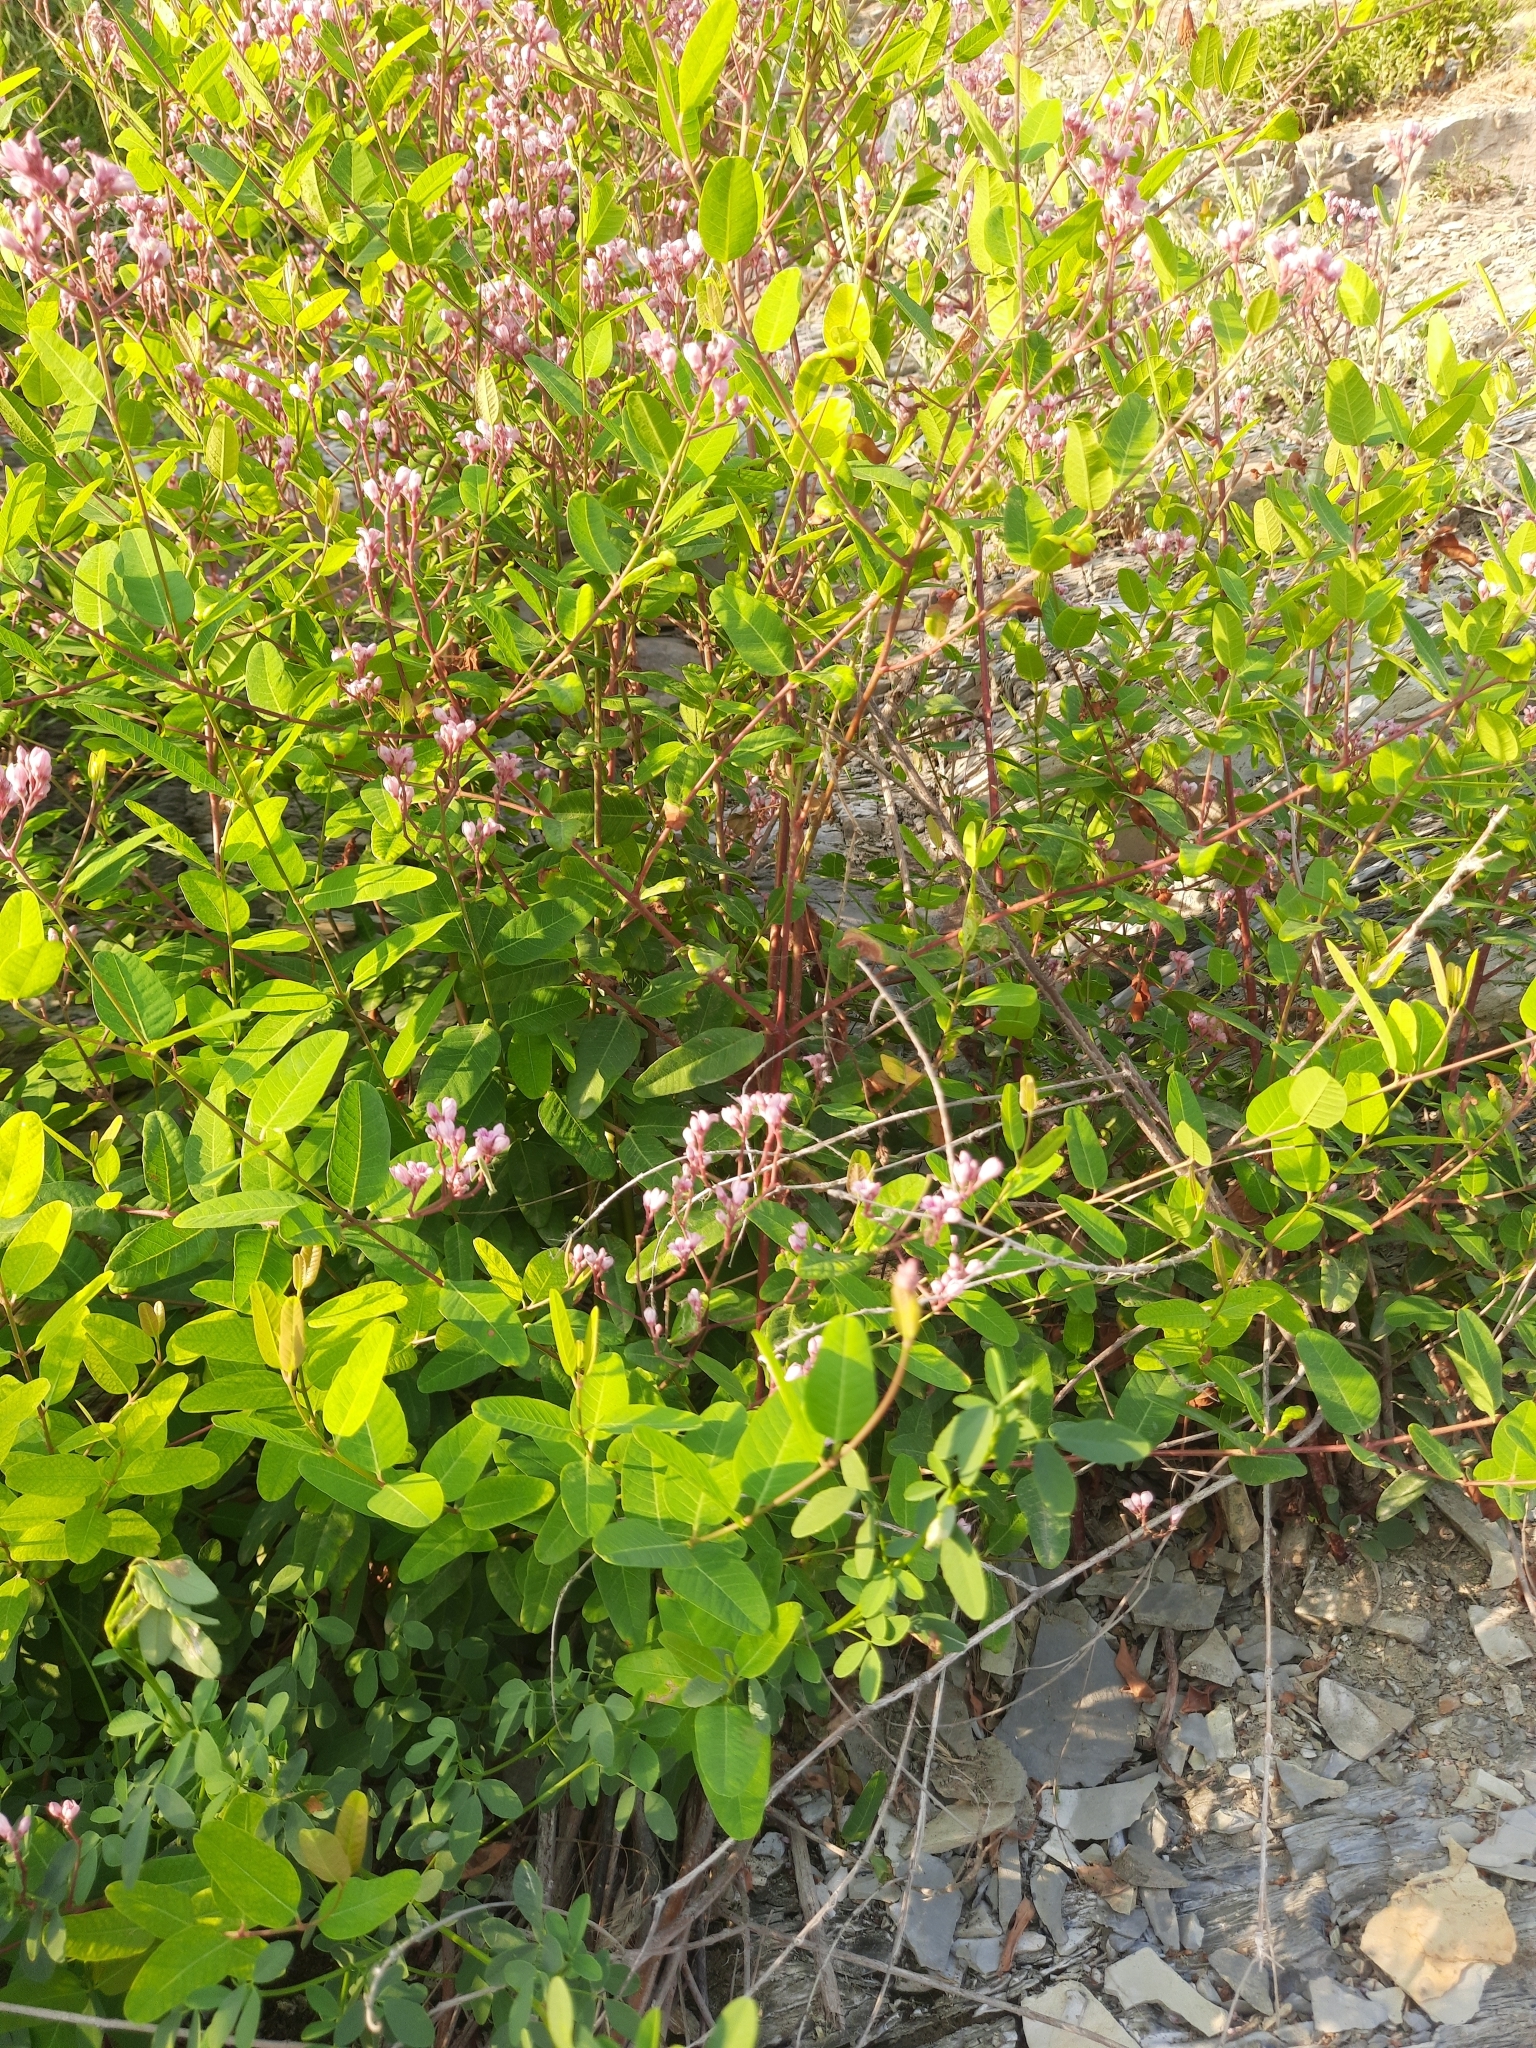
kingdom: Plantae
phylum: Tracheophyta
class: Magnoliopsida
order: Gentianales
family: Apocynaceae
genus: Poacynum
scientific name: Poacynum venetum
